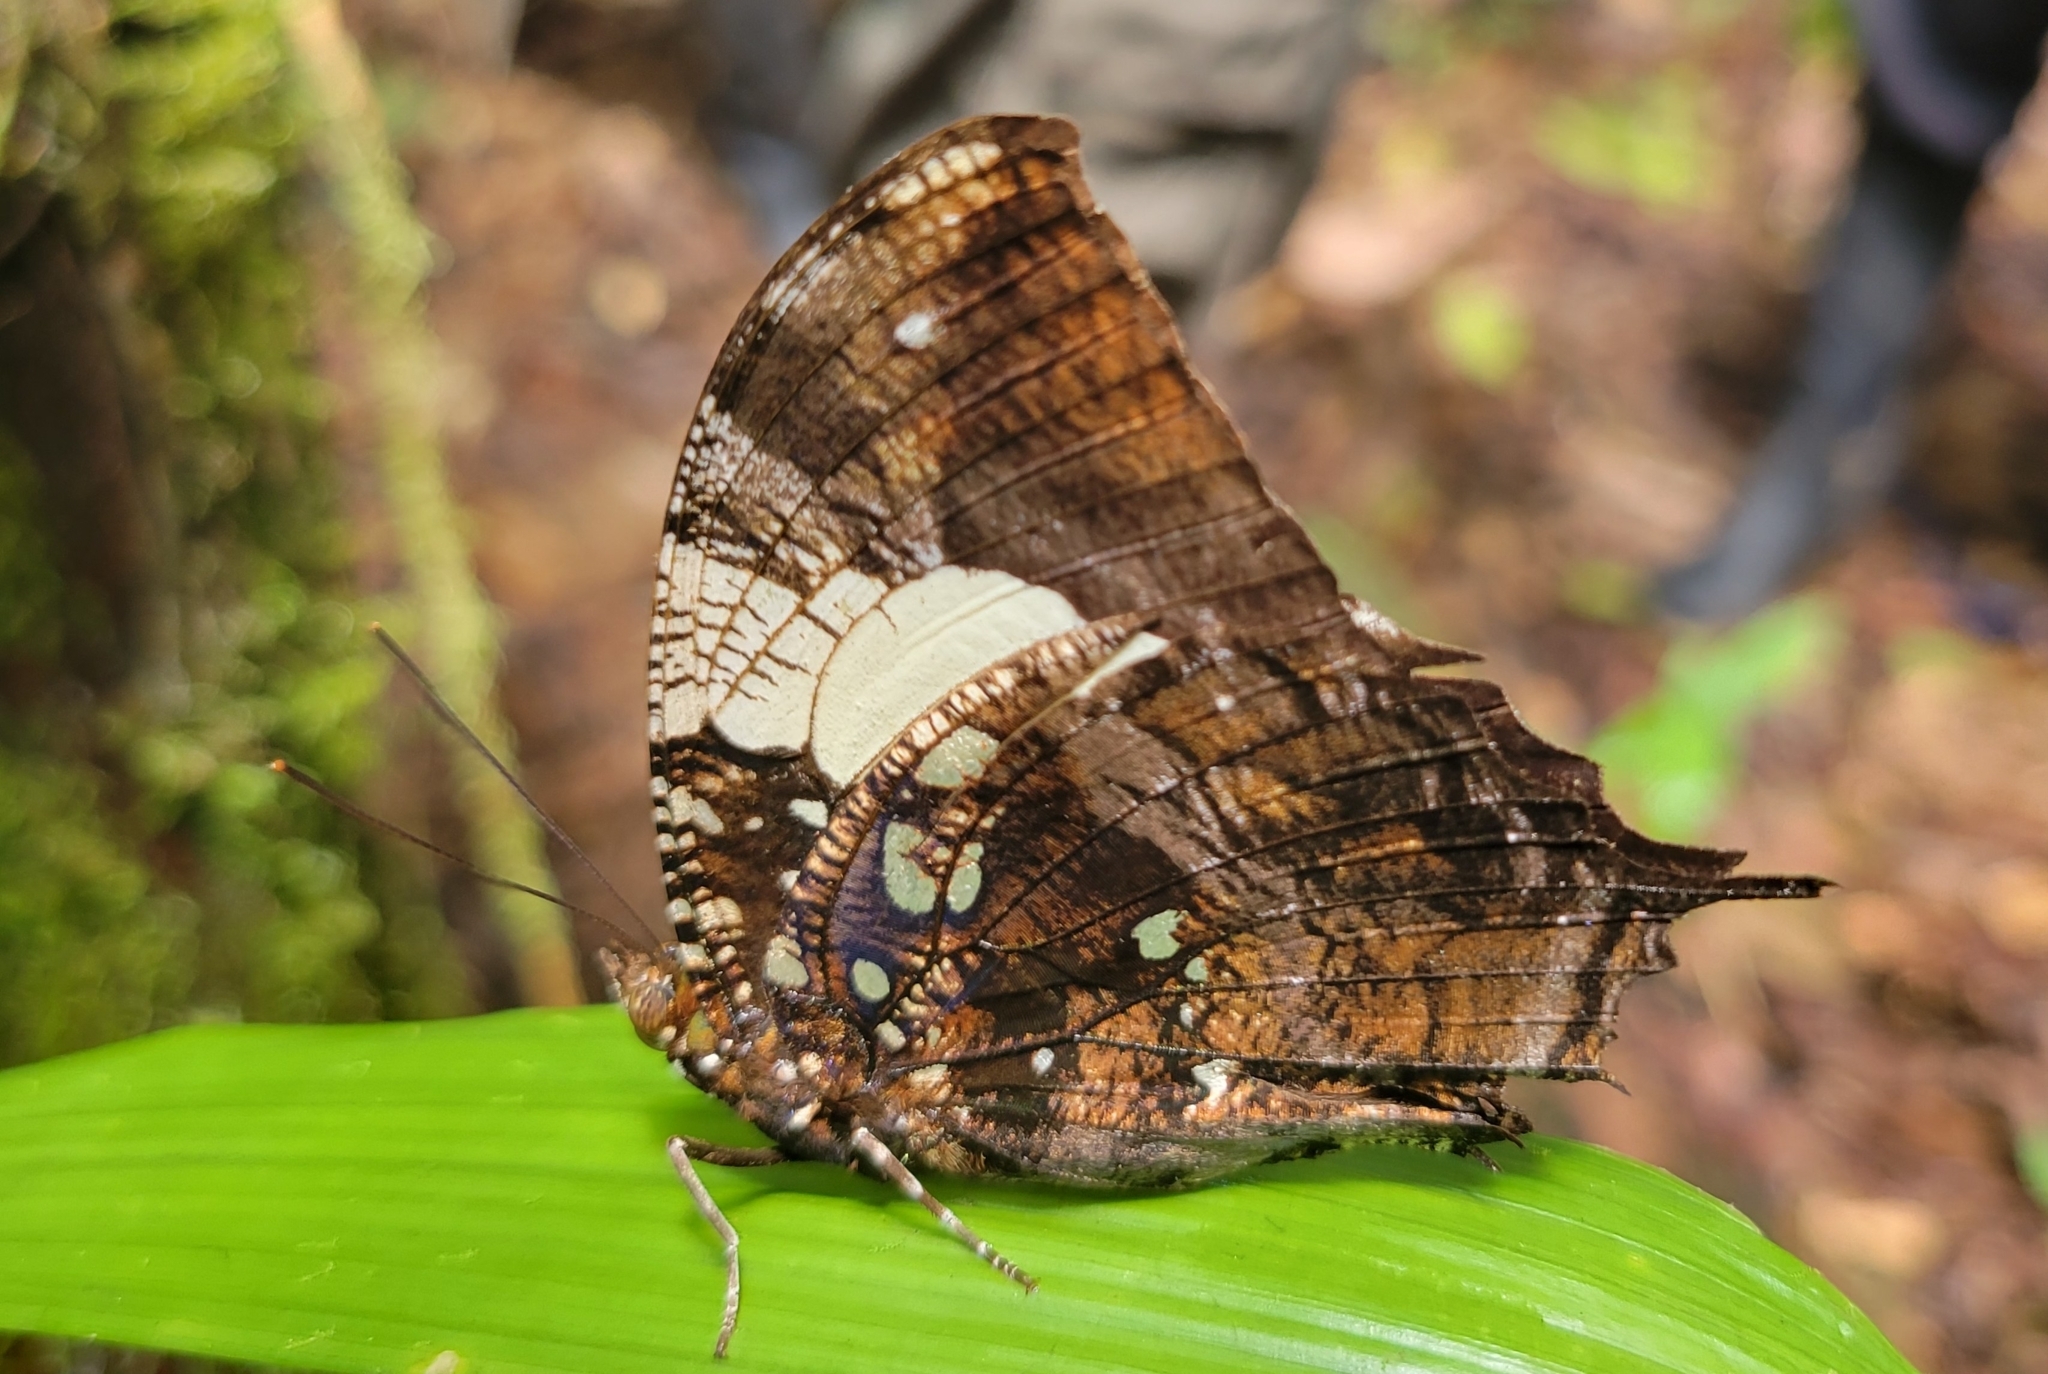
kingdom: Animalia
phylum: Arthropoda
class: Insecta
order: Lepidoptera
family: Nymphalidae
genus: Hypna
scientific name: Hypna clytemnestra
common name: Silver-studded leafwing
